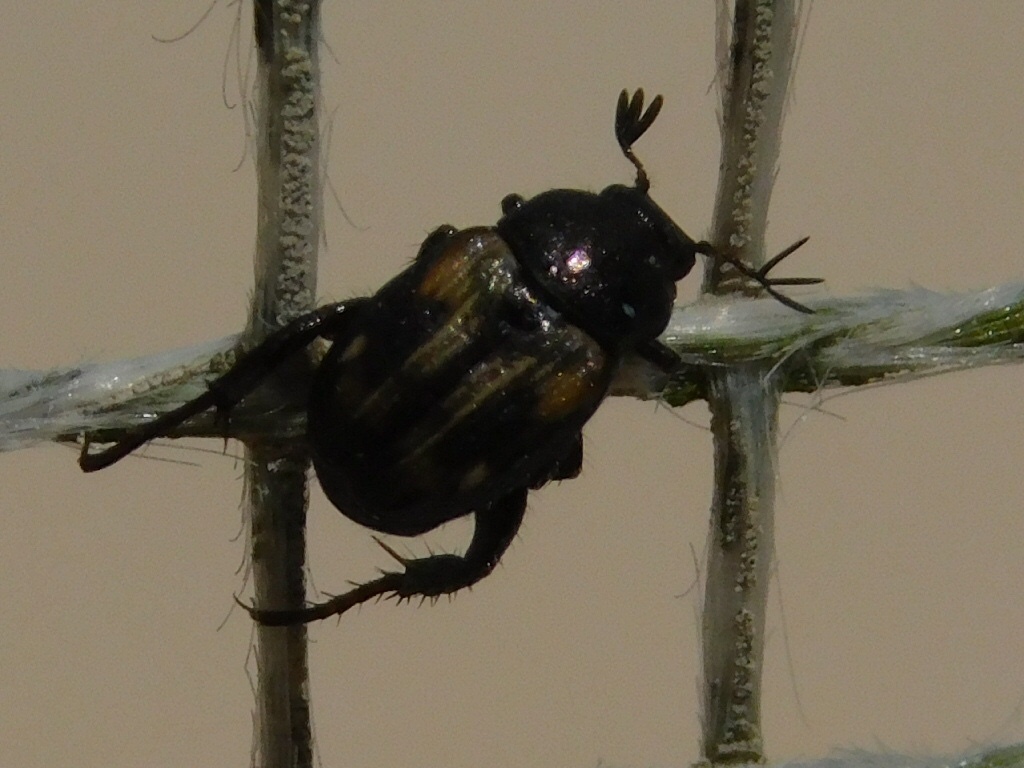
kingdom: Animalia
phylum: Arthropoda
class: Insecta
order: Coleoptera
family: Scarabaeidae
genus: Strigoderma
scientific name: Strigoderma pygmaea
